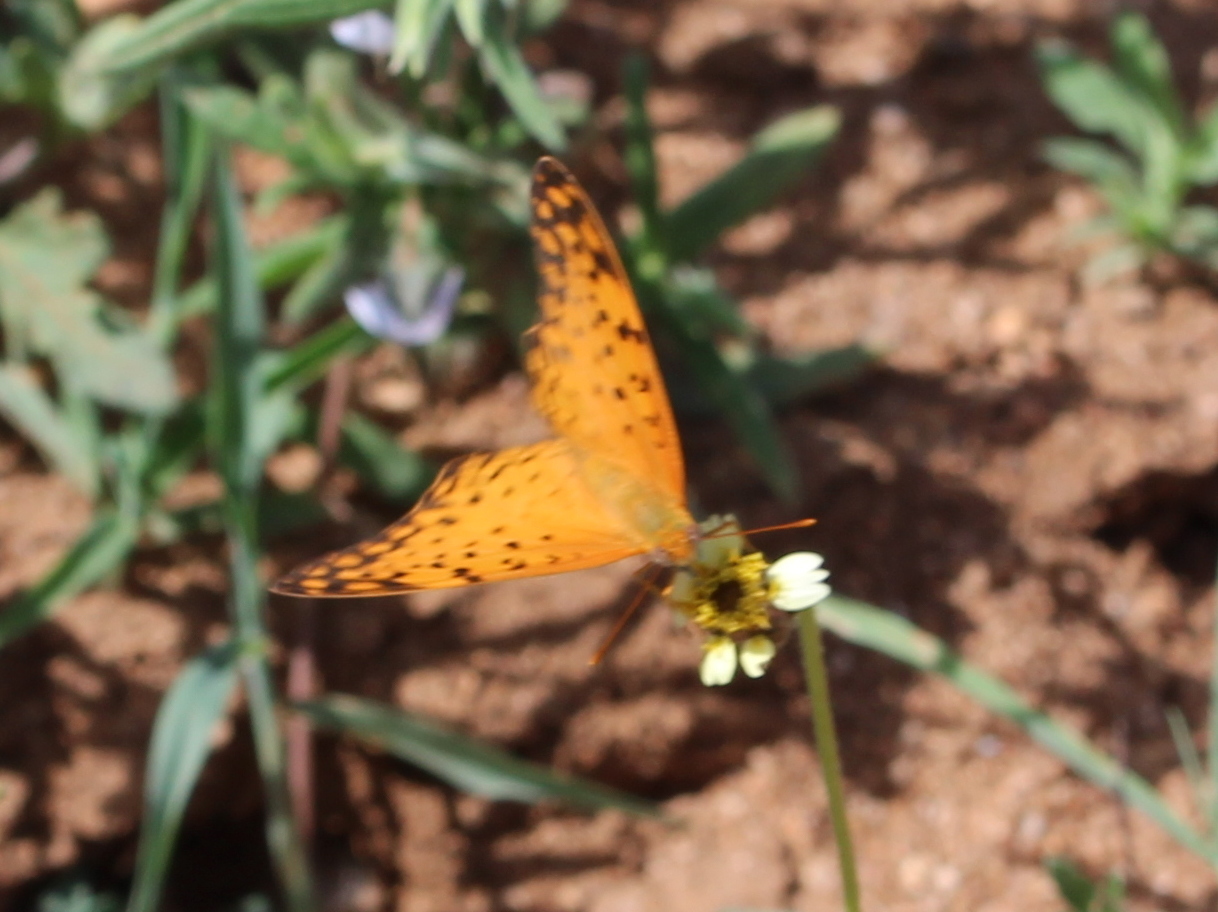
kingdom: Animalia
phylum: Arthropoda
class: Insecta
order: Lepidoptera
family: Nymphalidae
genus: Phalanta
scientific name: Phalanta phalantha
